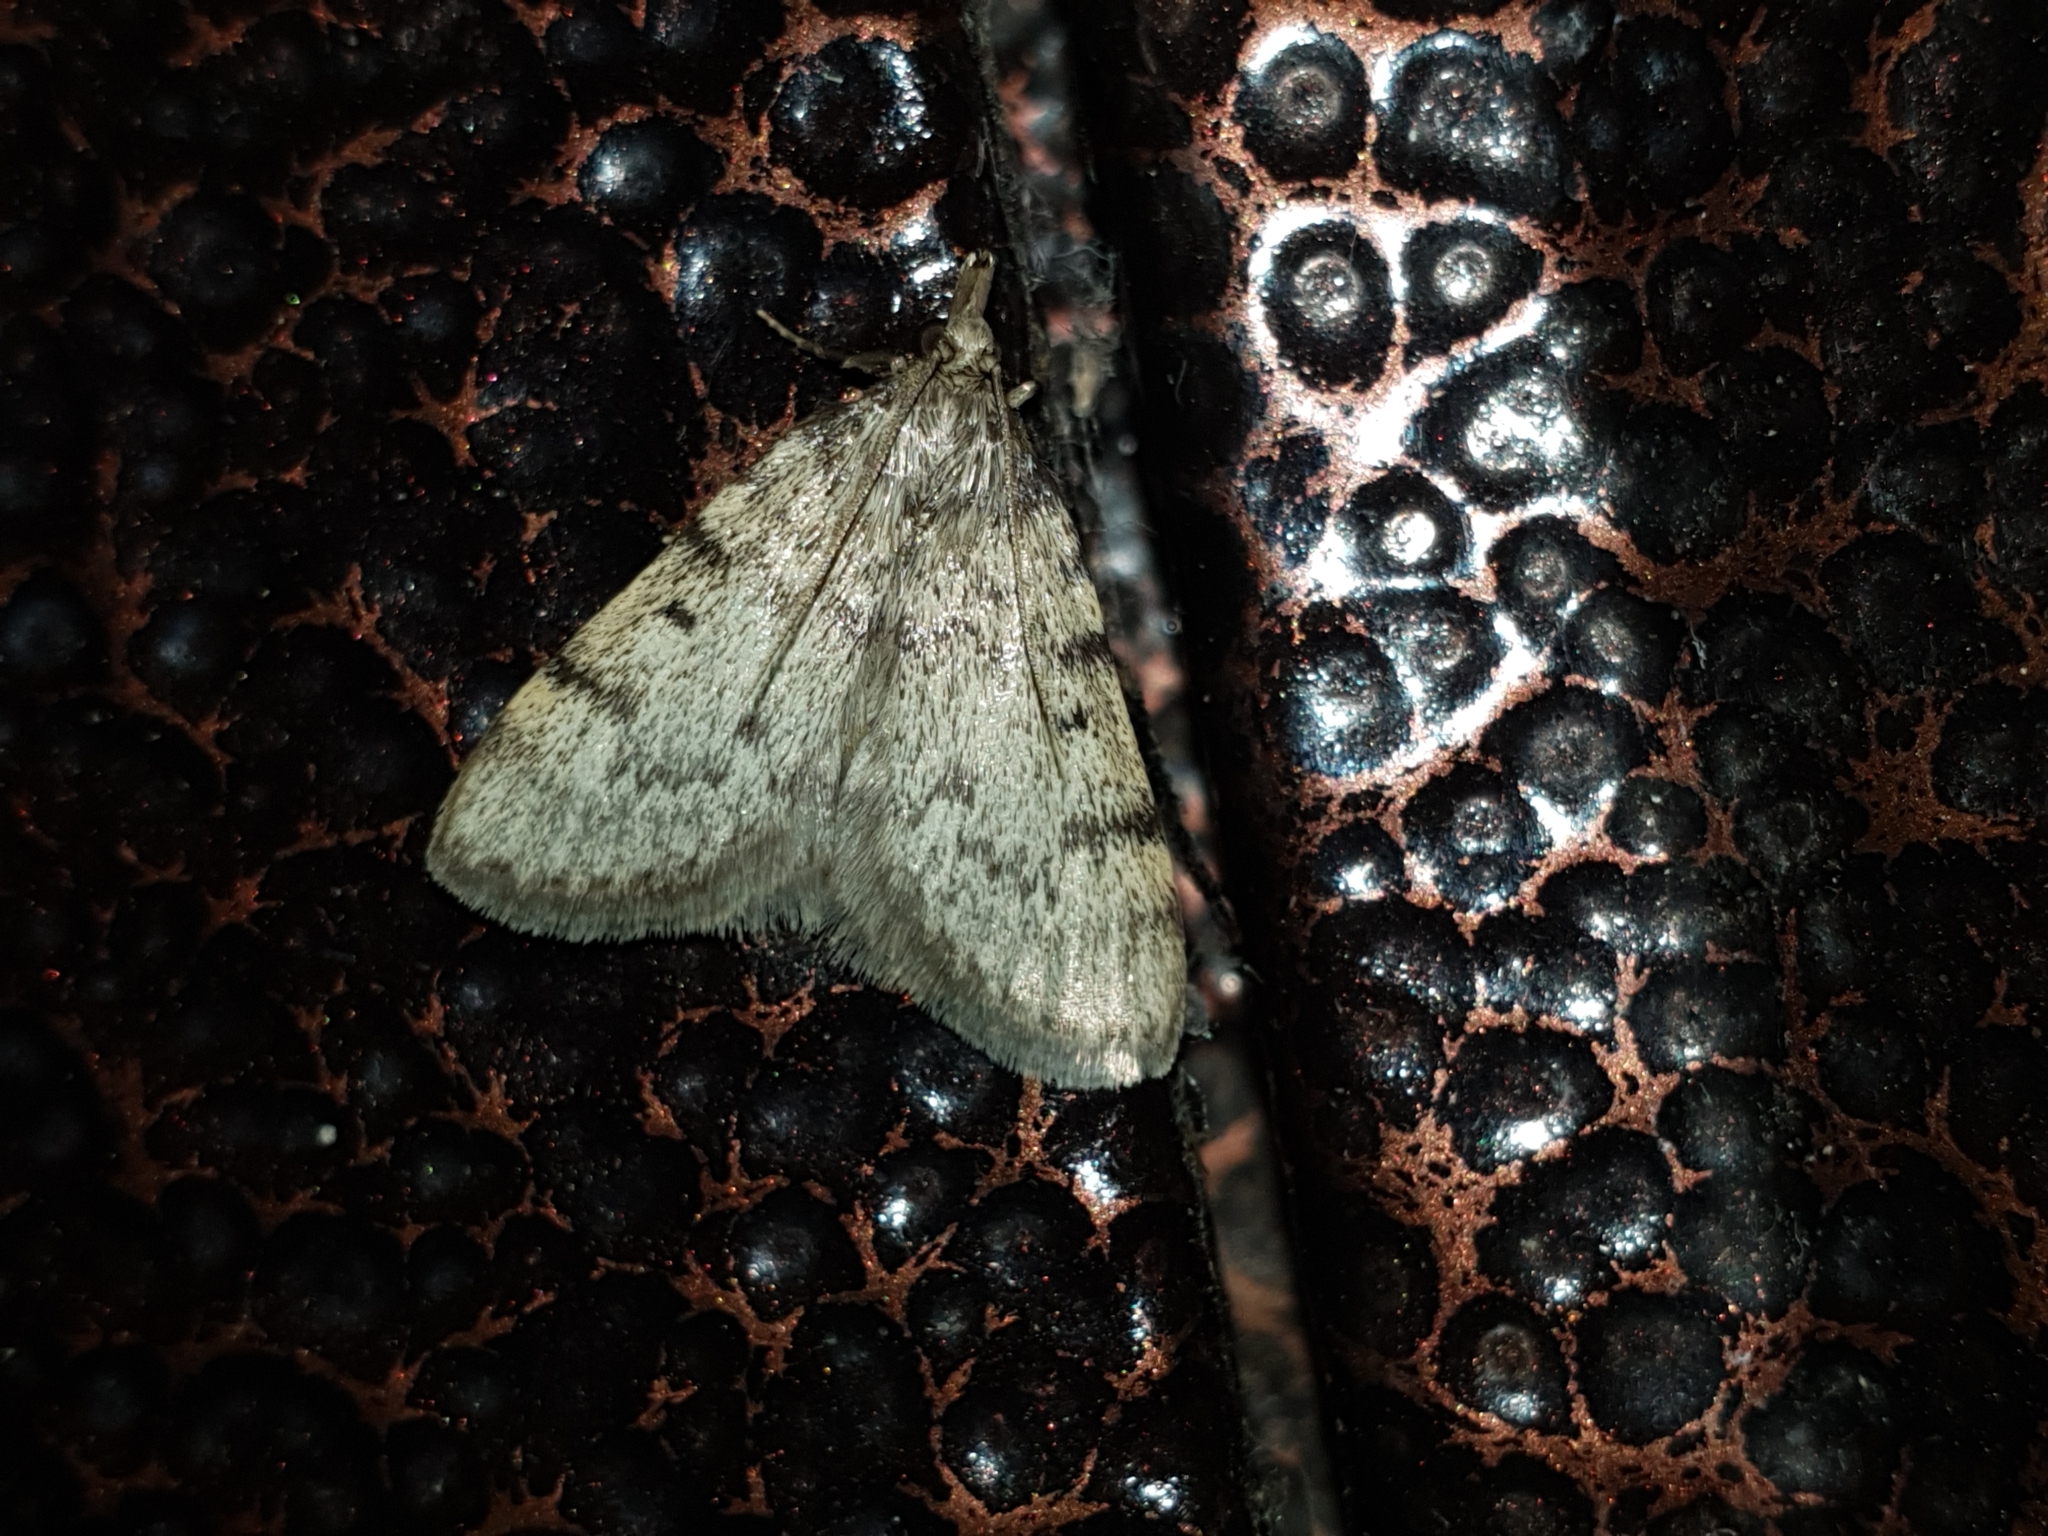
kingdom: Animalia
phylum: Arthropoda
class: Insecta
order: Lepidoptera
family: Pyralidae
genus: Aglossa
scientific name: Aglossa asiatica
